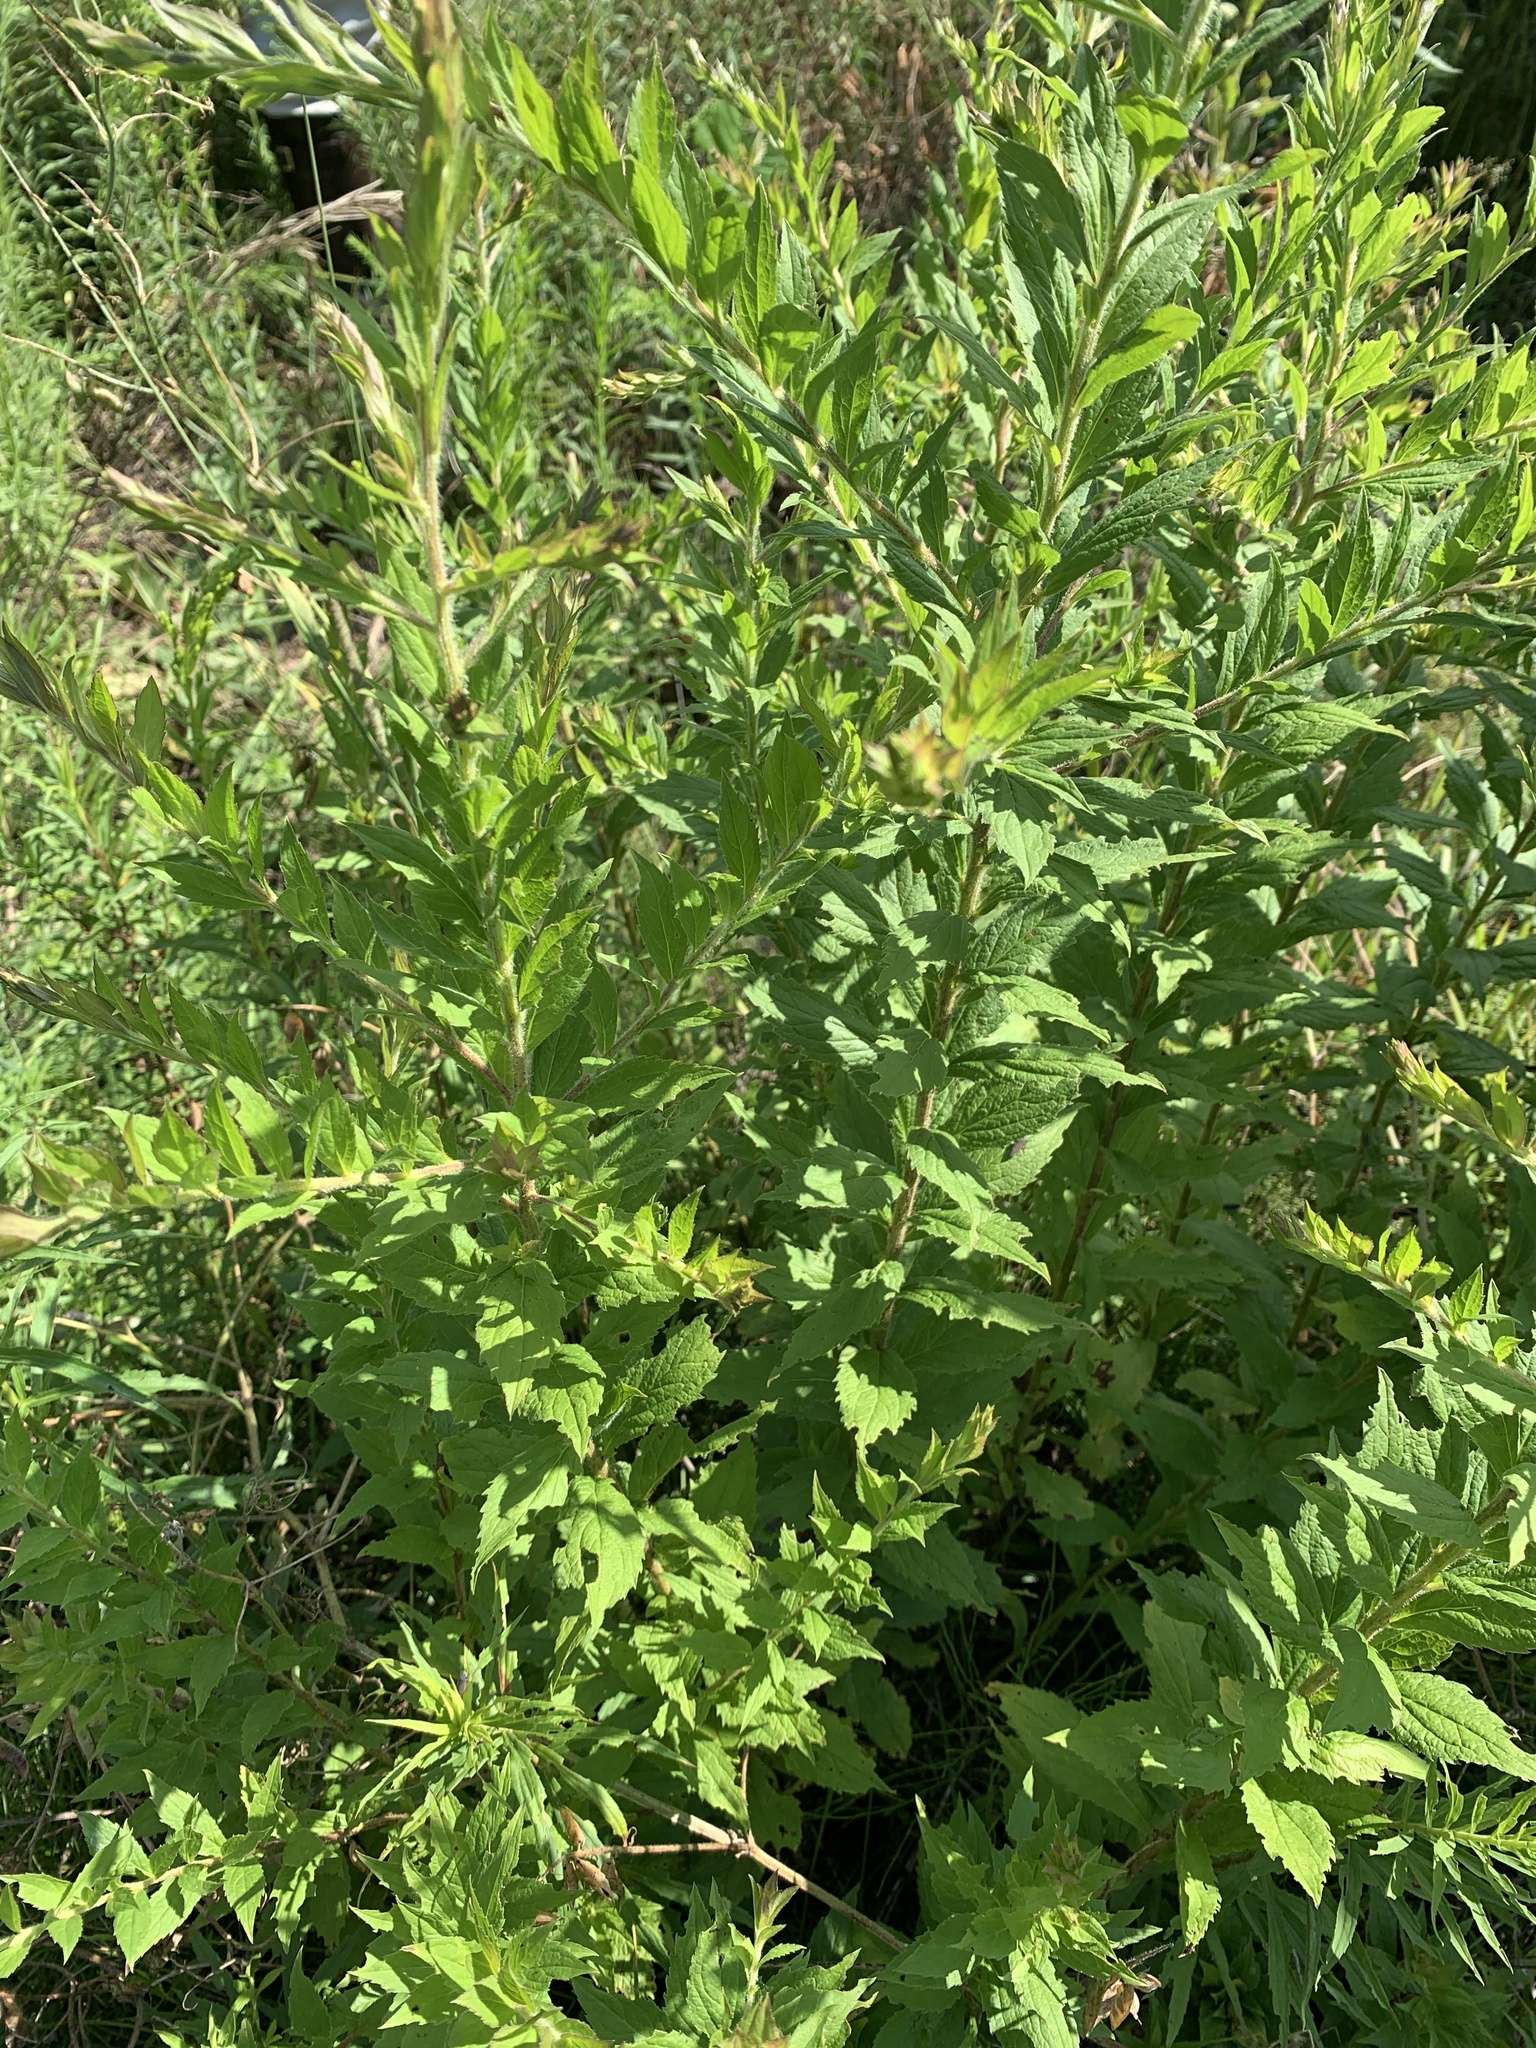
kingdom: Plantae
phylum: Tracheophyta
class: Magnoliopsida
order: Asterales
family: Asteraceae
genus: Solidago
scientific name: Solidago rugosa
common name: Rough-stemmed goldenrod
